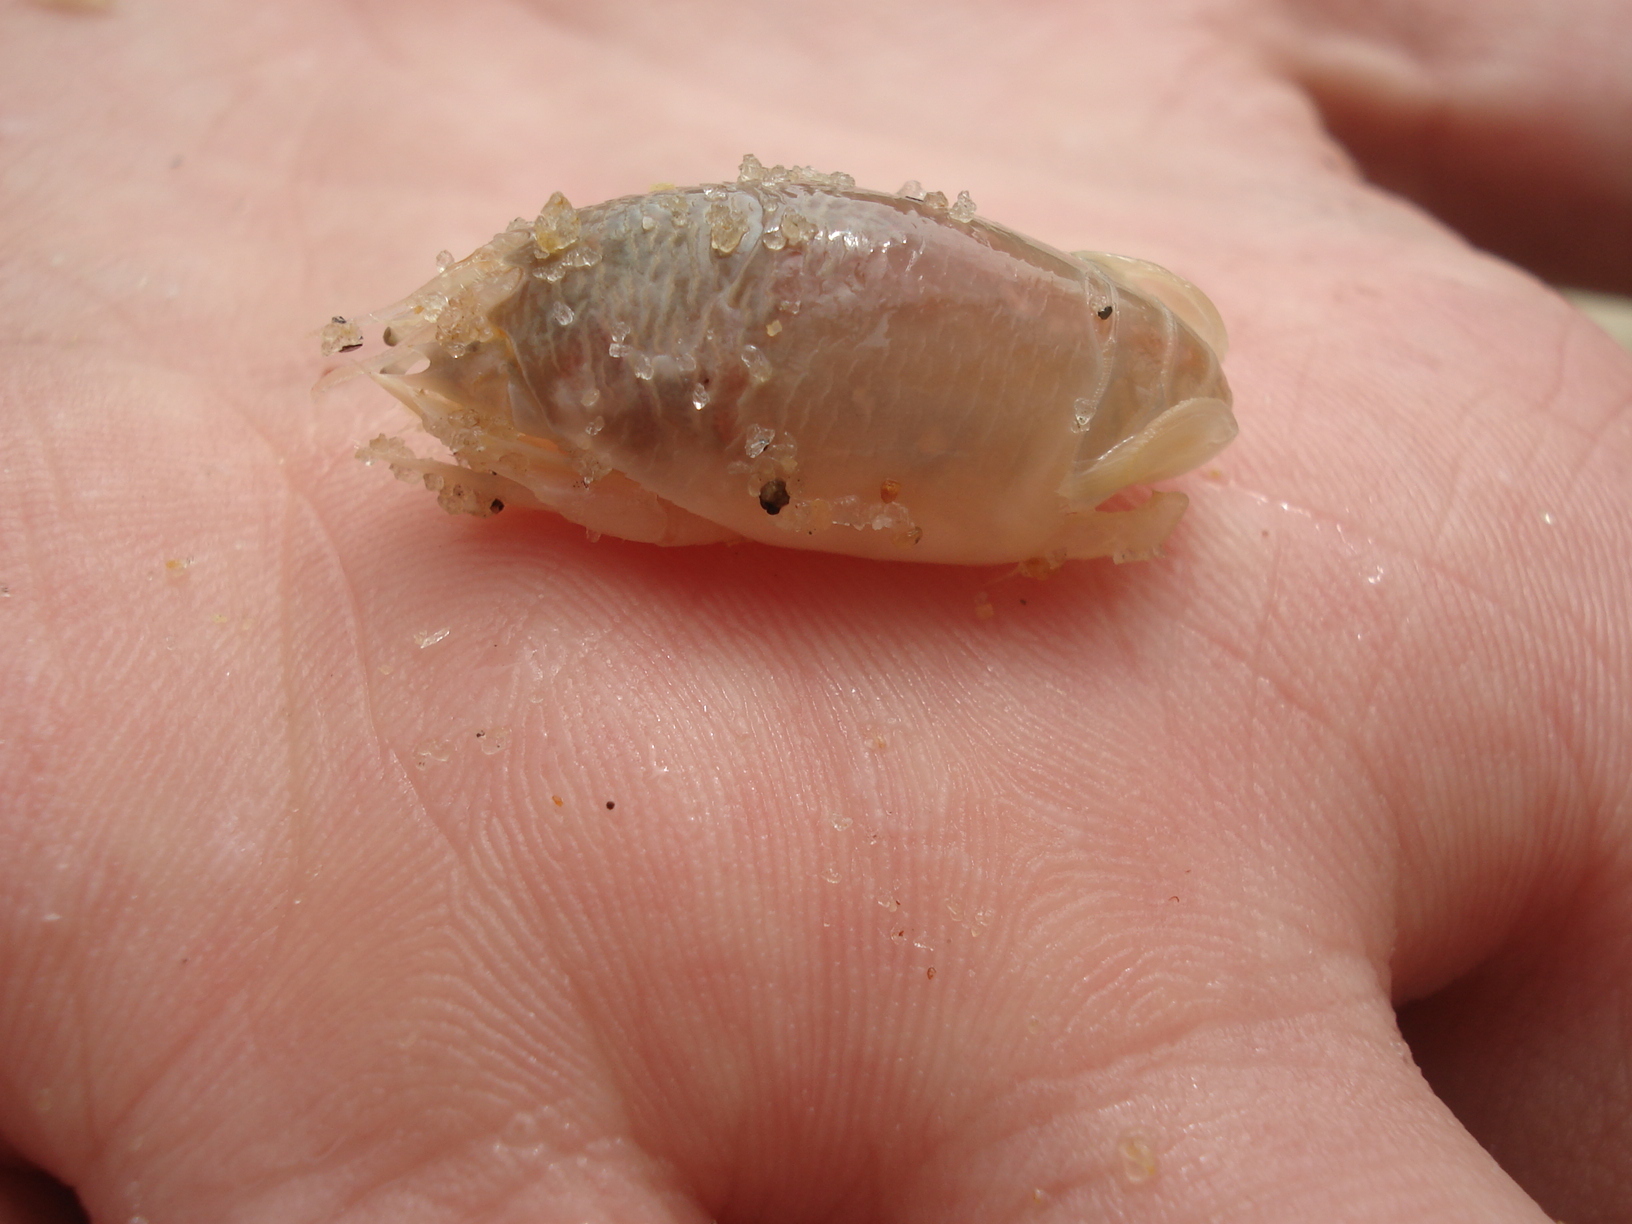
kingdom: Animalia
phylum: Arthropoda
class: Malacostraca
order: Decapoda
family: Hippidae
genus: Emerita
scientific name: Emerita brasiliensis
